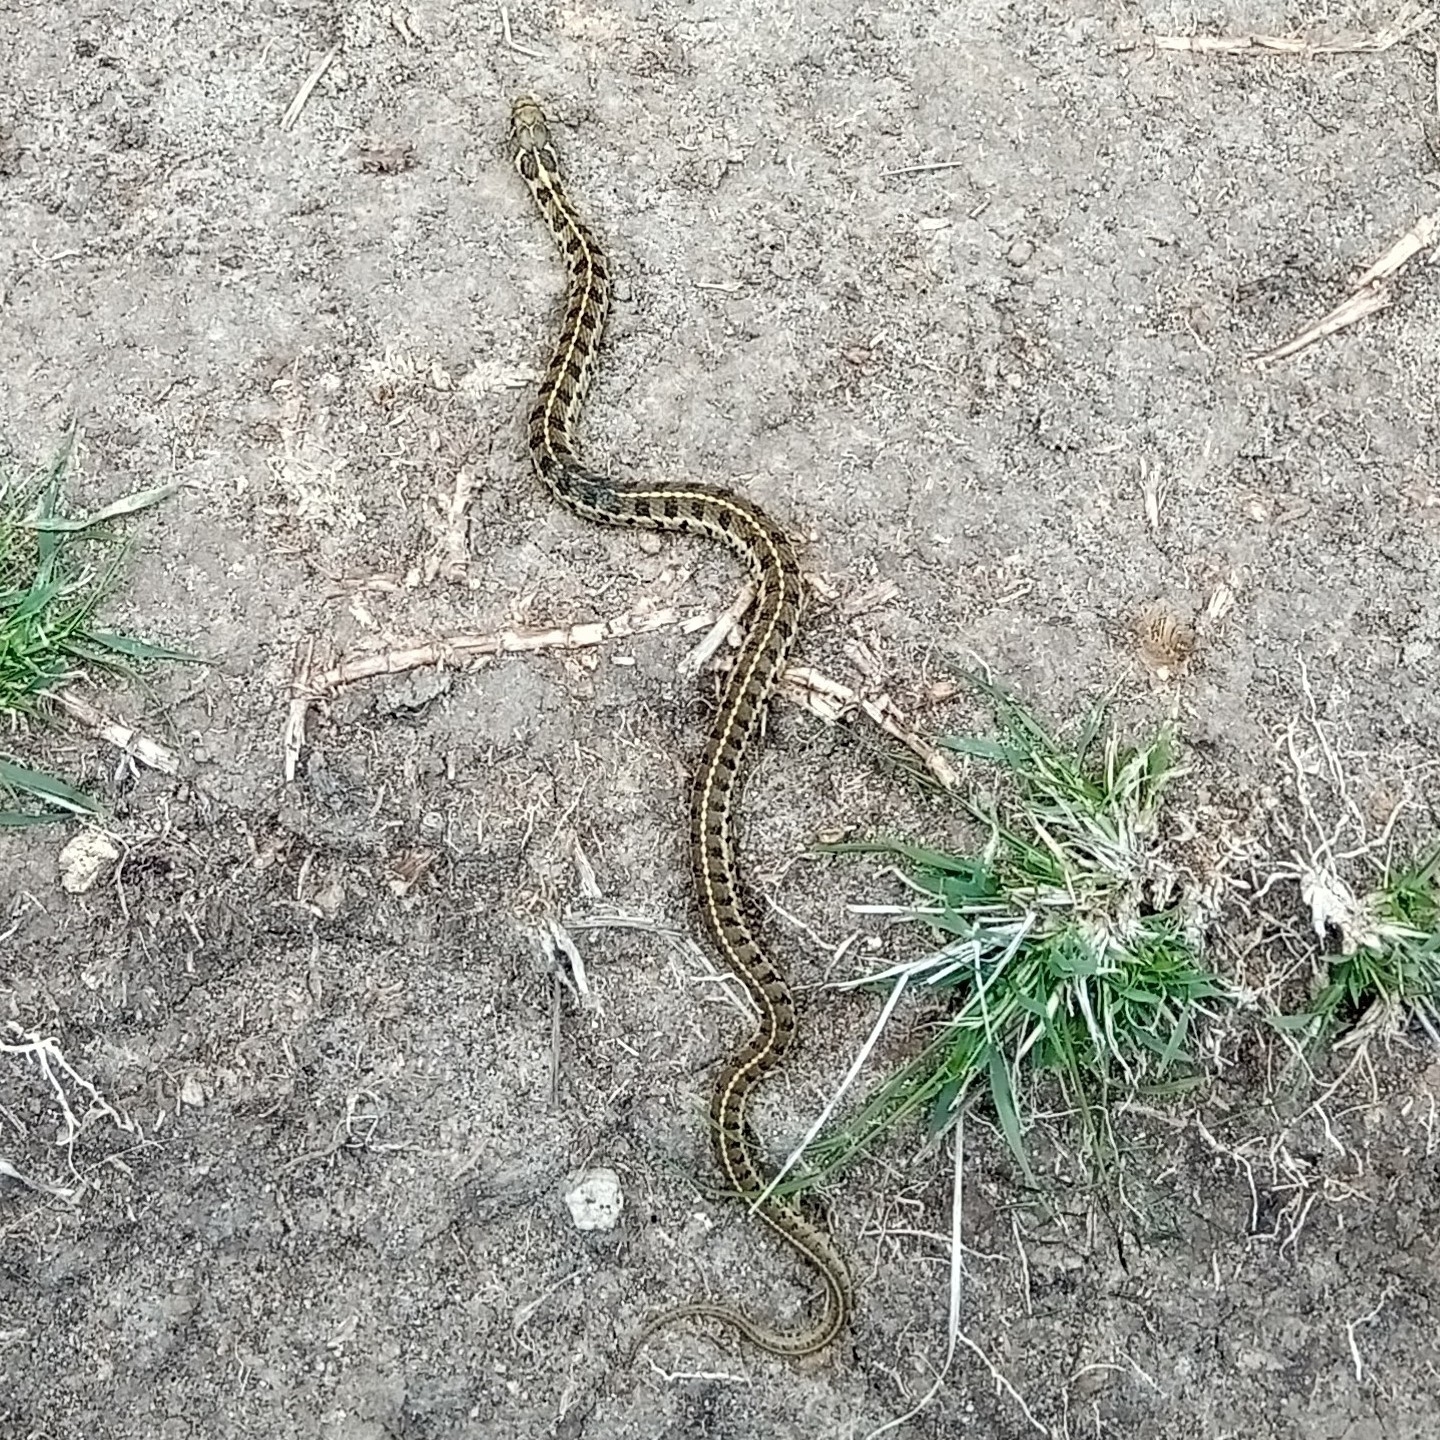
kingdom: Animalia
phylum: Chordata
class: Squamata
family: Colubridae
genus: Thamnophis
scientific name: Thamnophis scaliger
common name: Short-tail alpine garter snake
